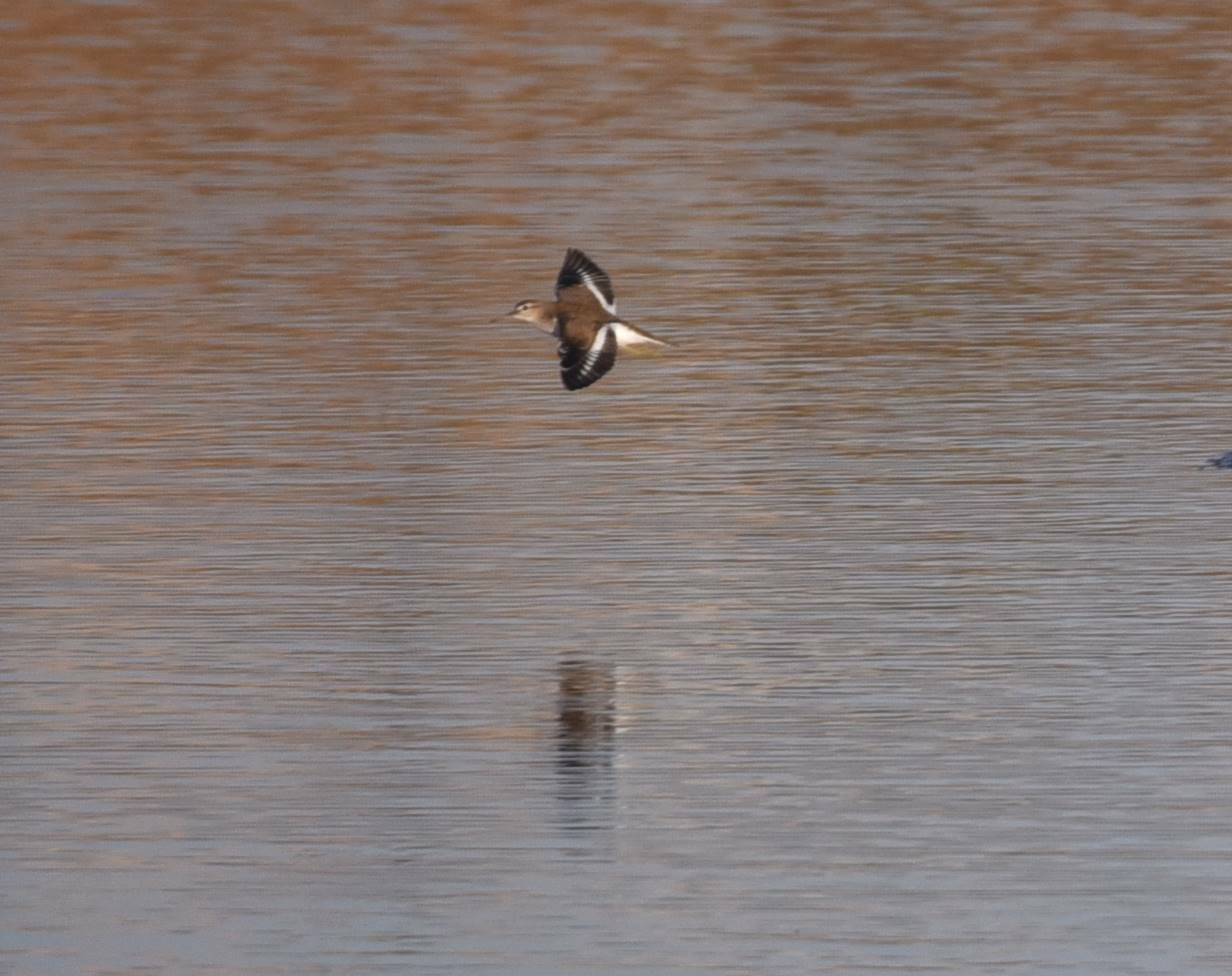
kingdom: Animalia
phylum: Chordata
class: Aves
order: Charadriiformes
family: Scolopacidae
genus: Actitis
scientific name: Actitis hypoleucos
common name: Common sandpiper
